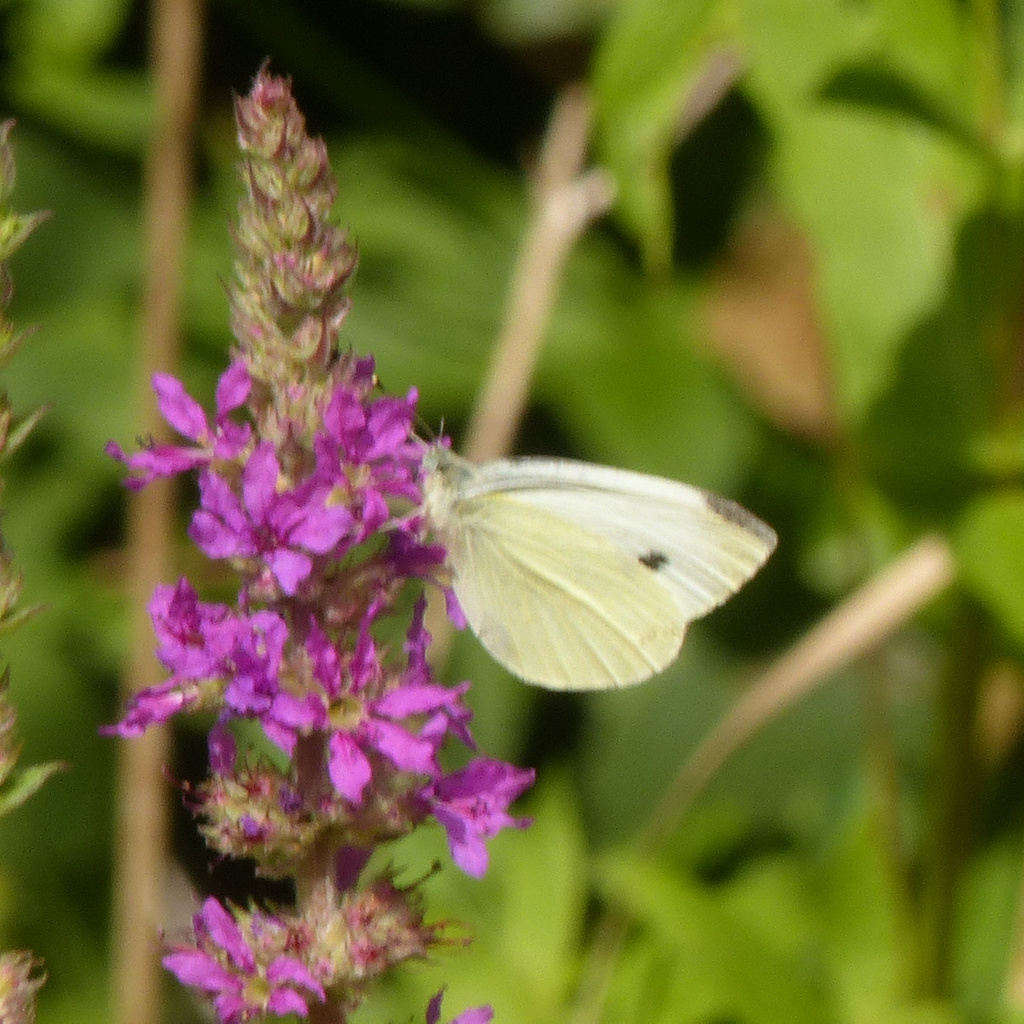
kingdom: Animalia
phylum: Arthropoda
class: Insecta
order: Lepidoptera
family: Pieridae
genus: Pieris
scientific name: Pieris rapae
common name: Small white
